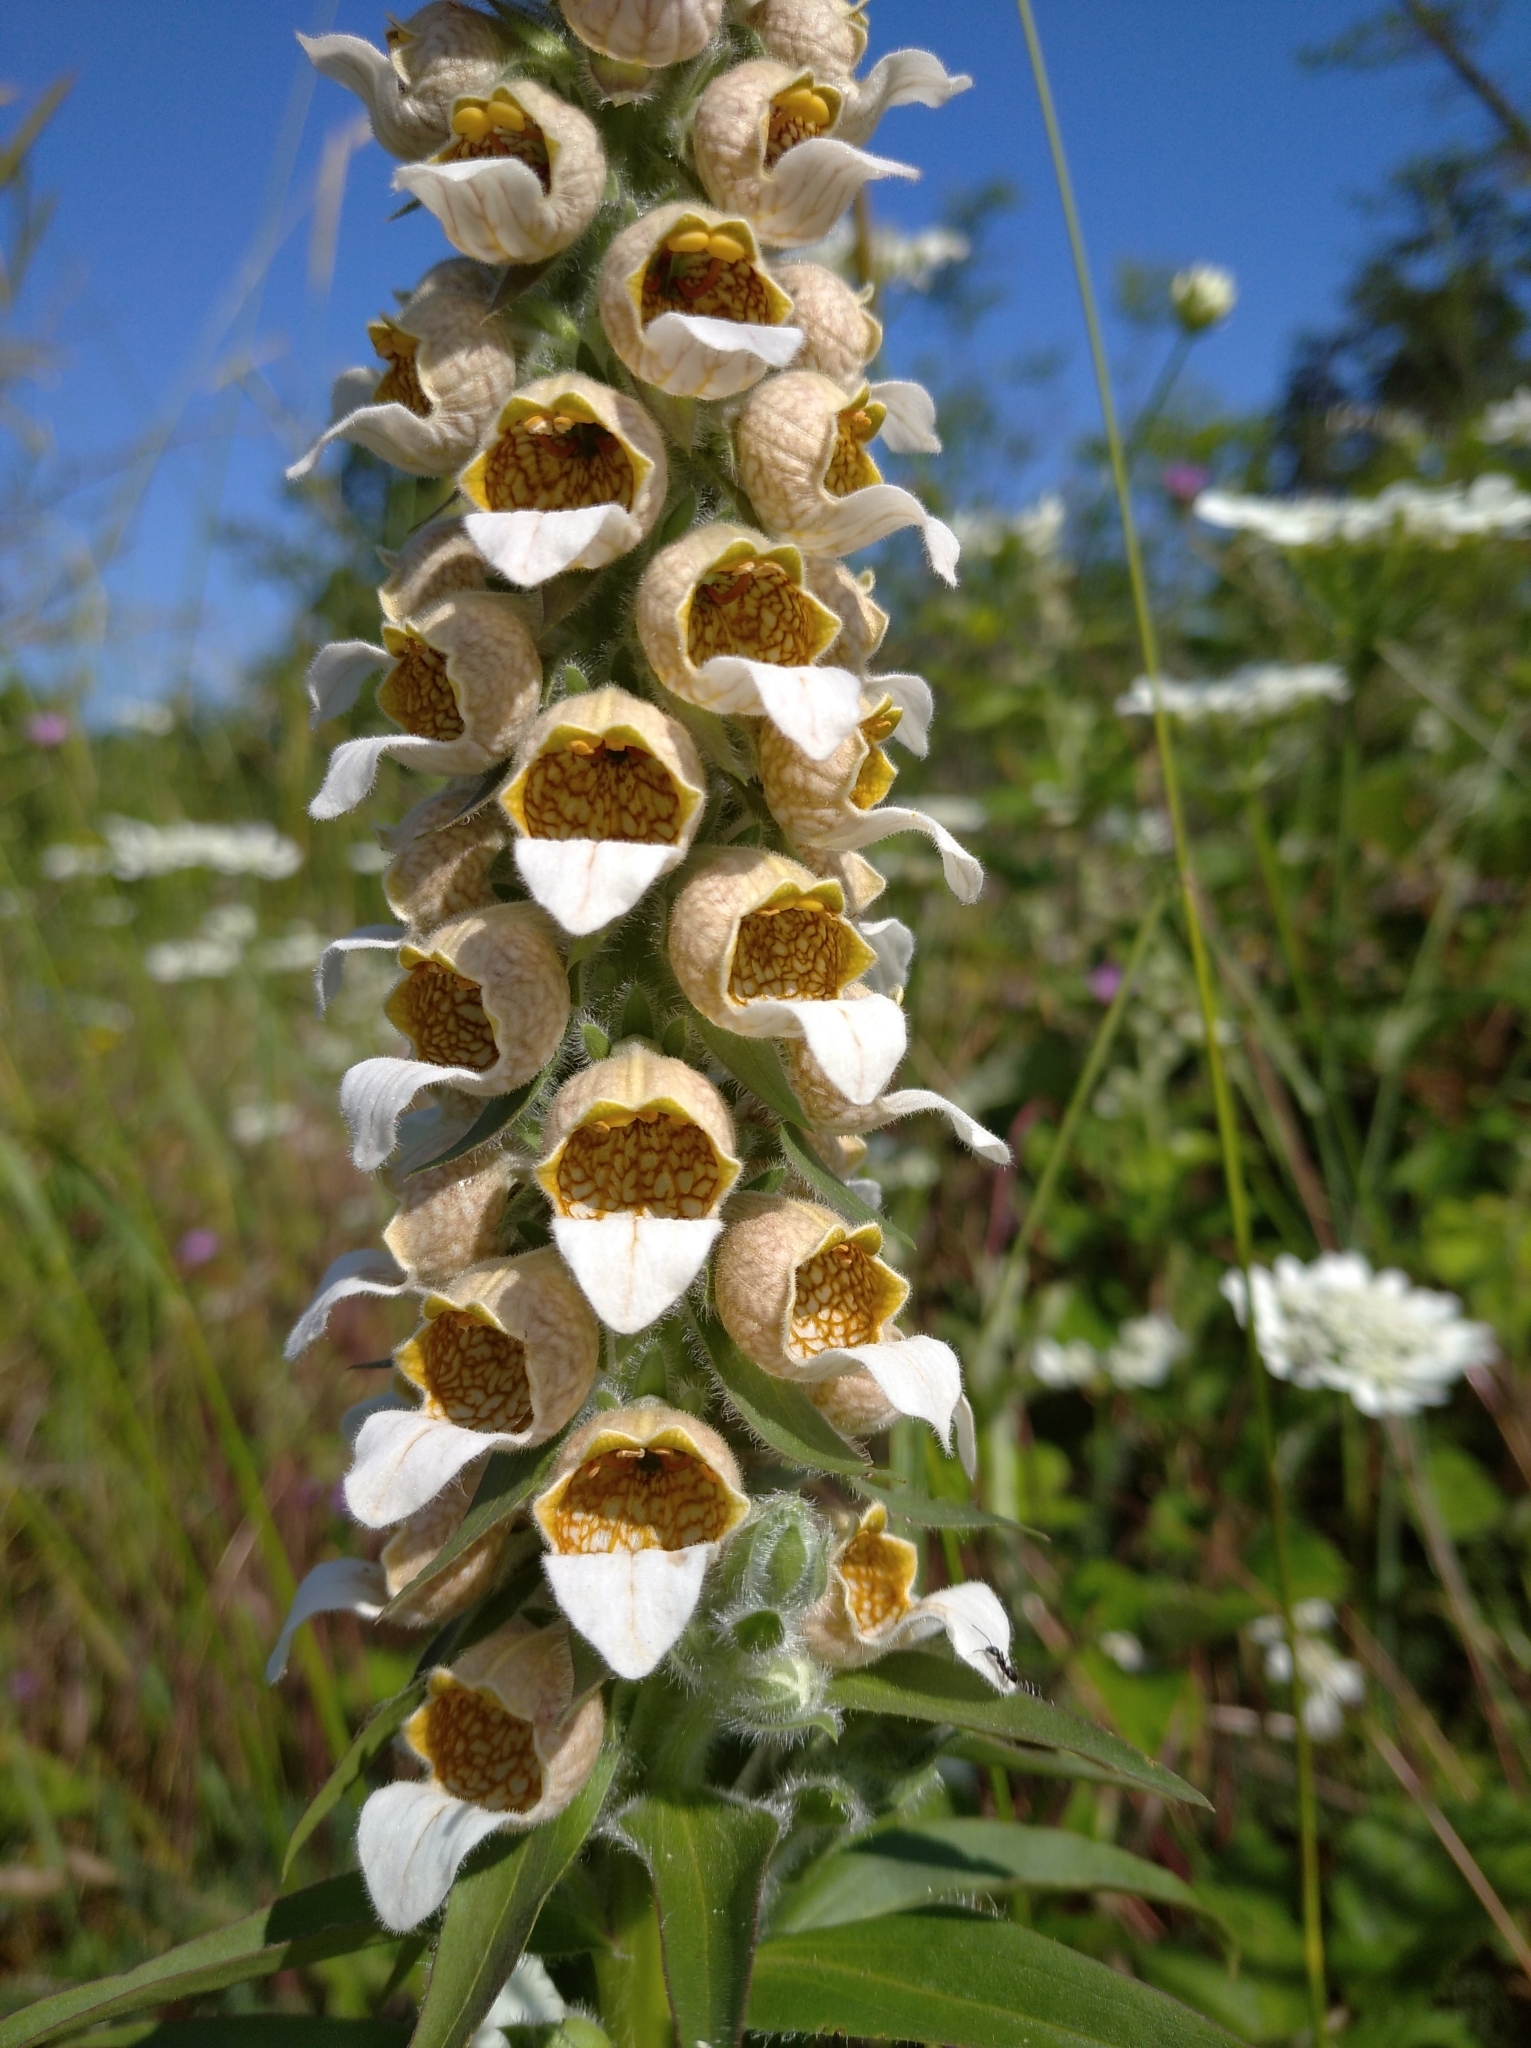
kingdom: Plantae
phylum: Tracheophyta
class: Magnoliopsida
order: Lamiales
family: Plantaginaceae
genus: Digitalis
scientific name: Digitalis lanata
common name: Grecian foxglove
